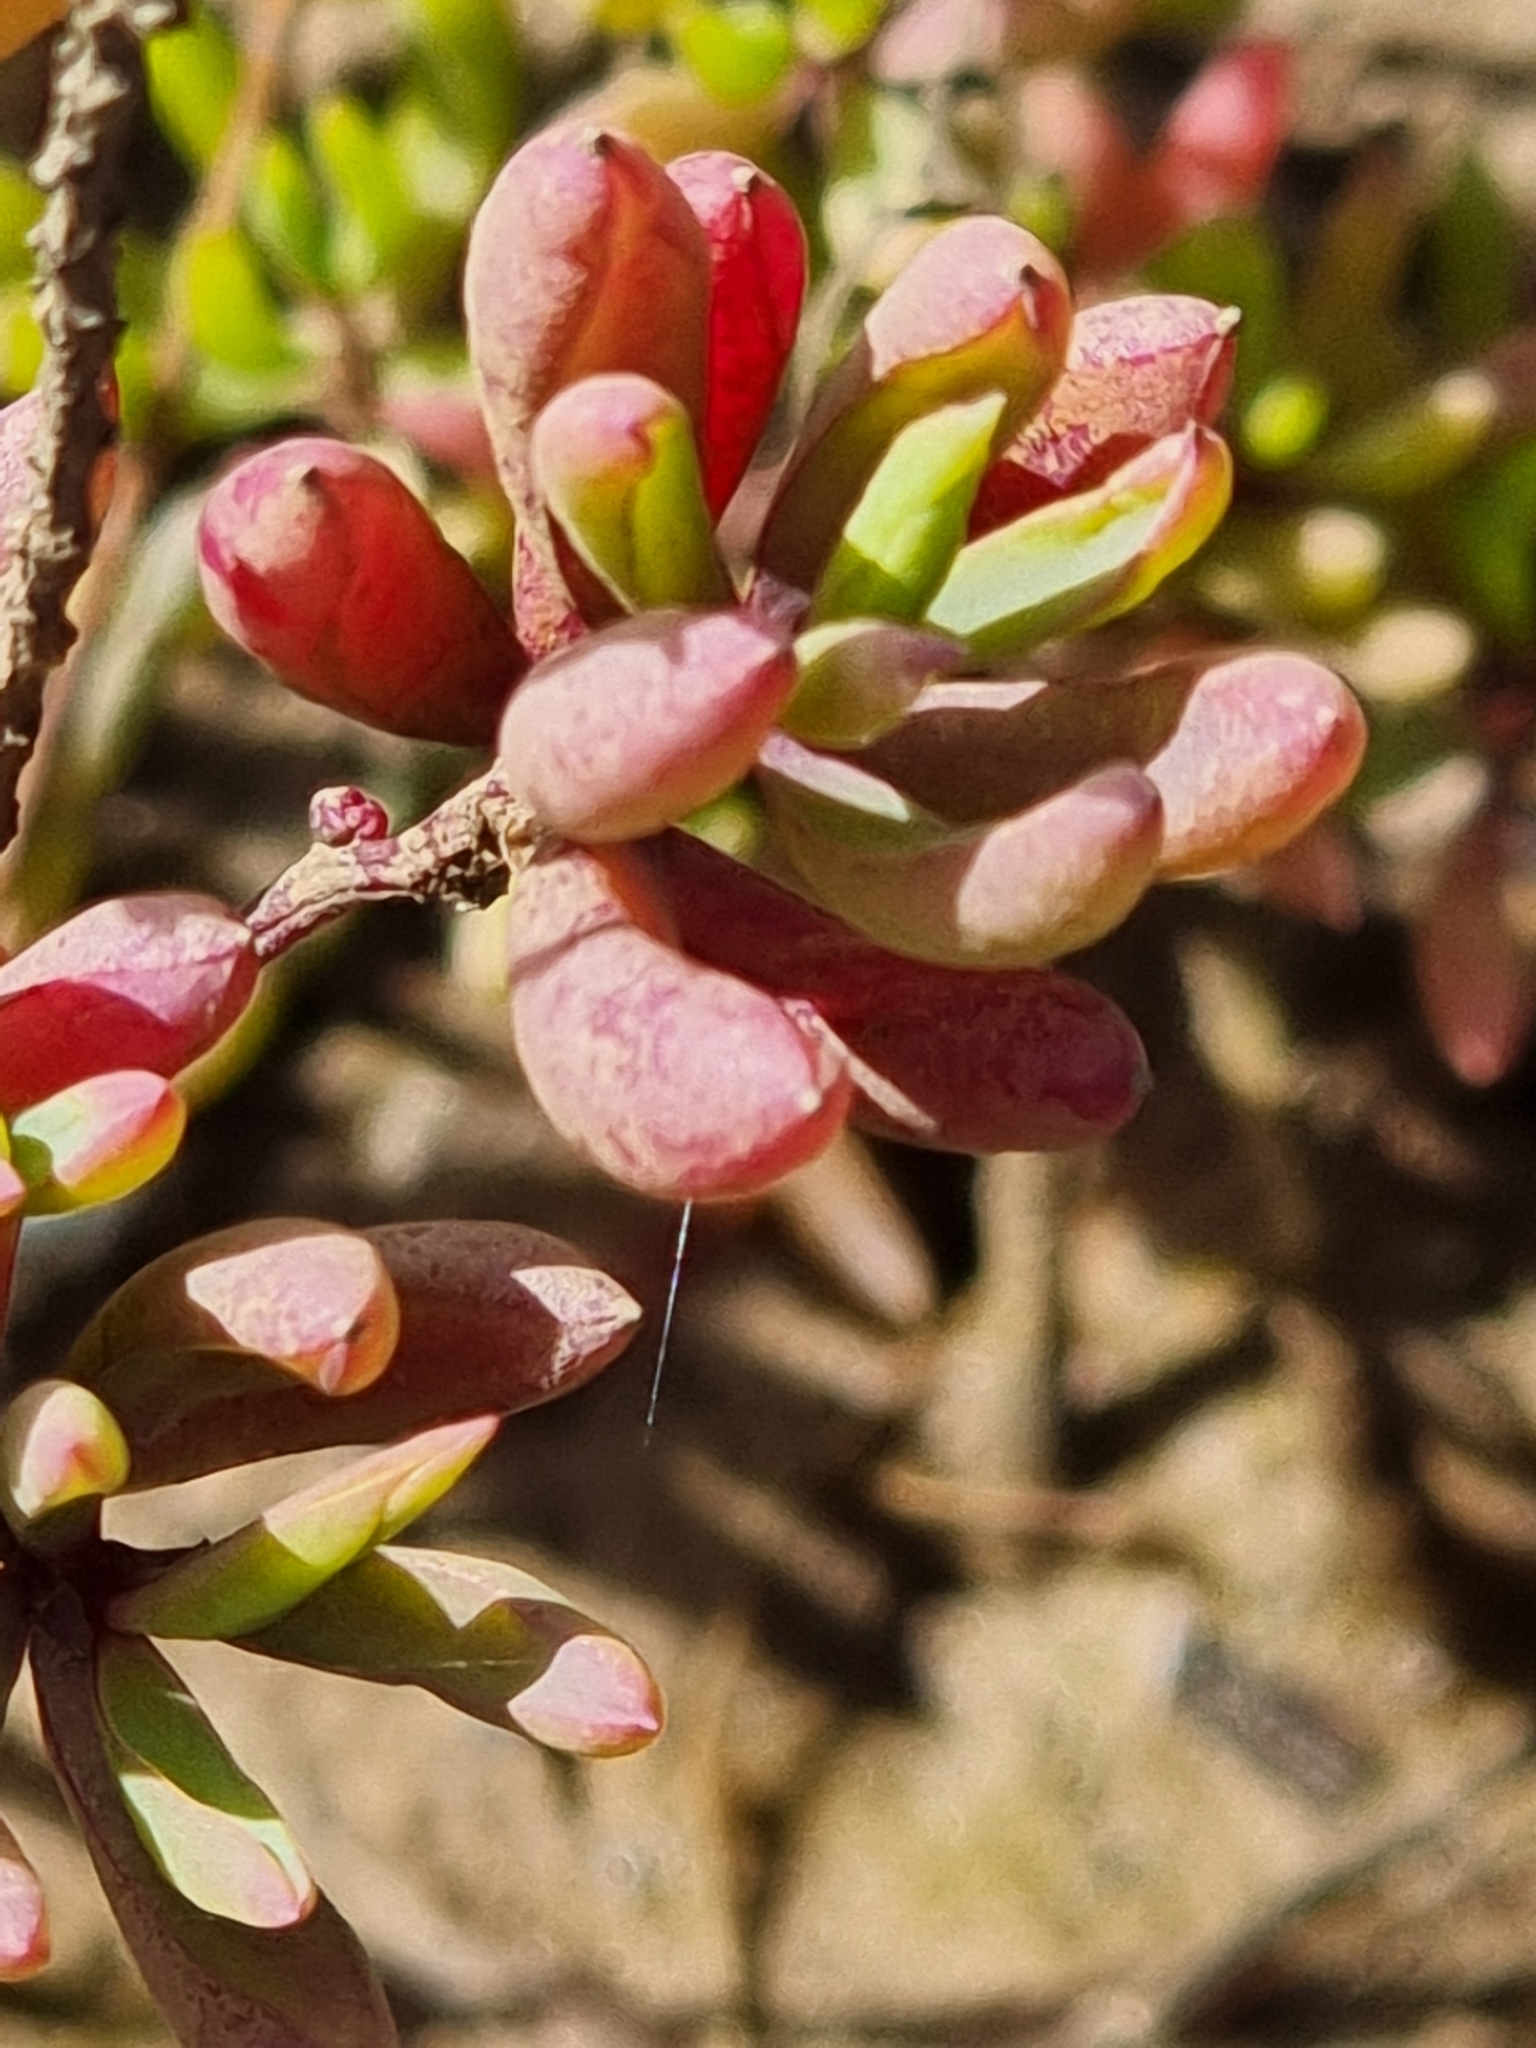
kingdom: Plantae
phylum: Tracheophyta
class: Magnoliopsida
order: Caryophyllales
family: Amaranthaceae
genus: Suaeda
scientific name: Suaeda arbusculoides
